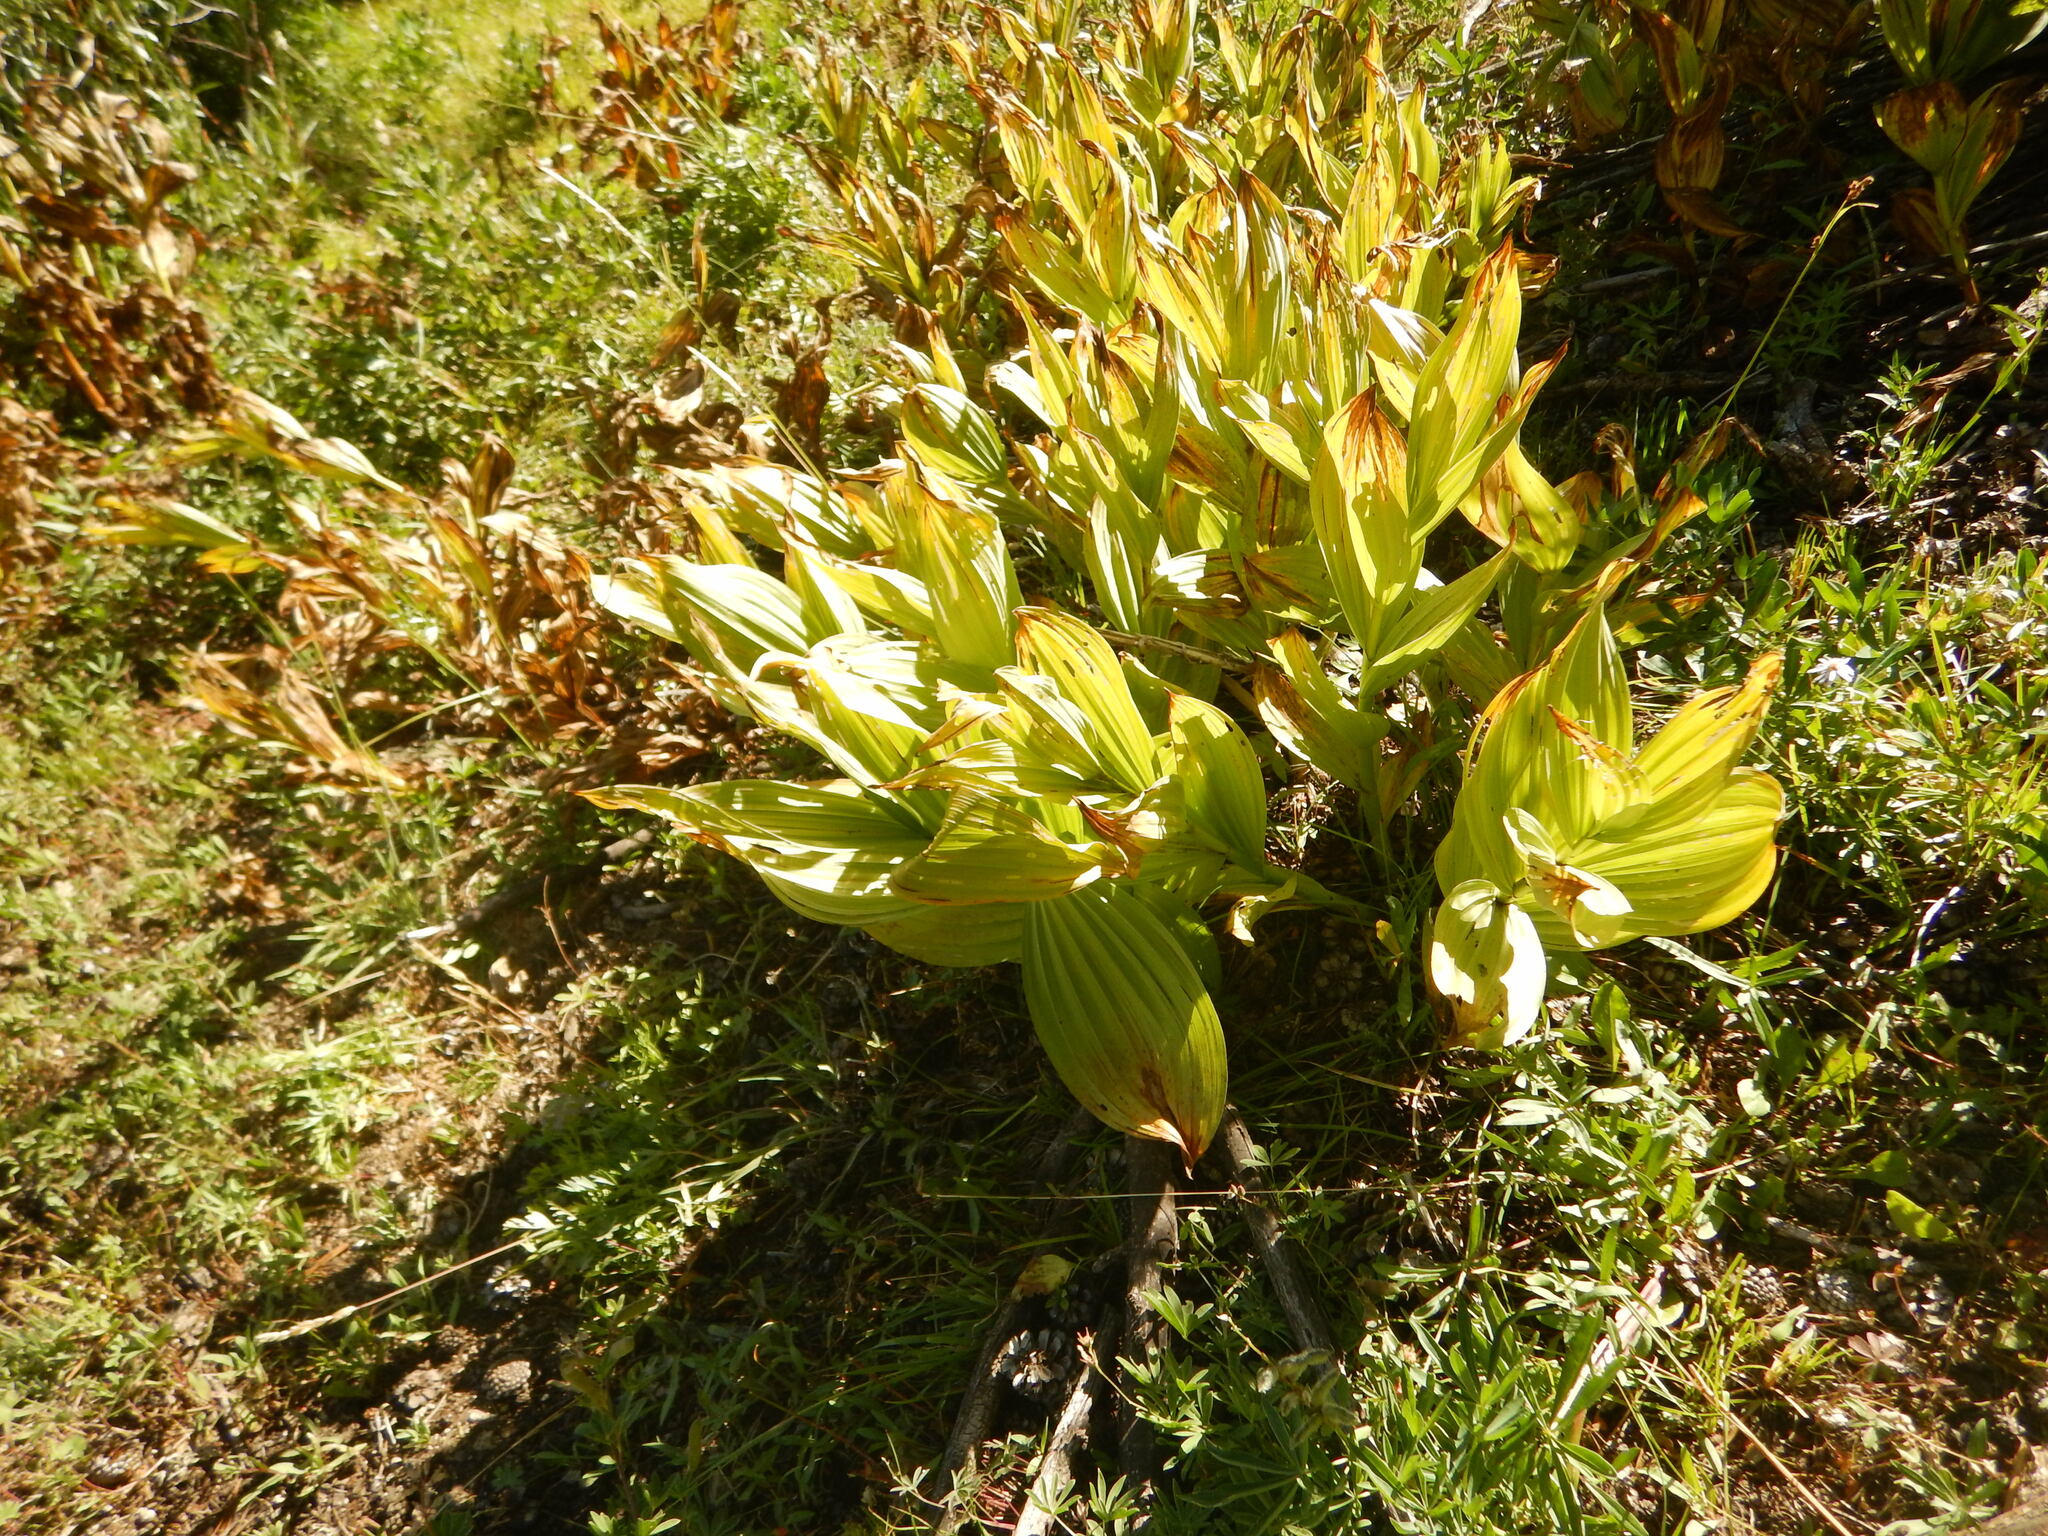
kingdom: Plantae
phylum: Tracheophyta
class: Liliopsida
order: Liliales
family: Melanthiaceae
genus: Veratrum
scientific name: Veratrum californicum
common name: California veratrum
